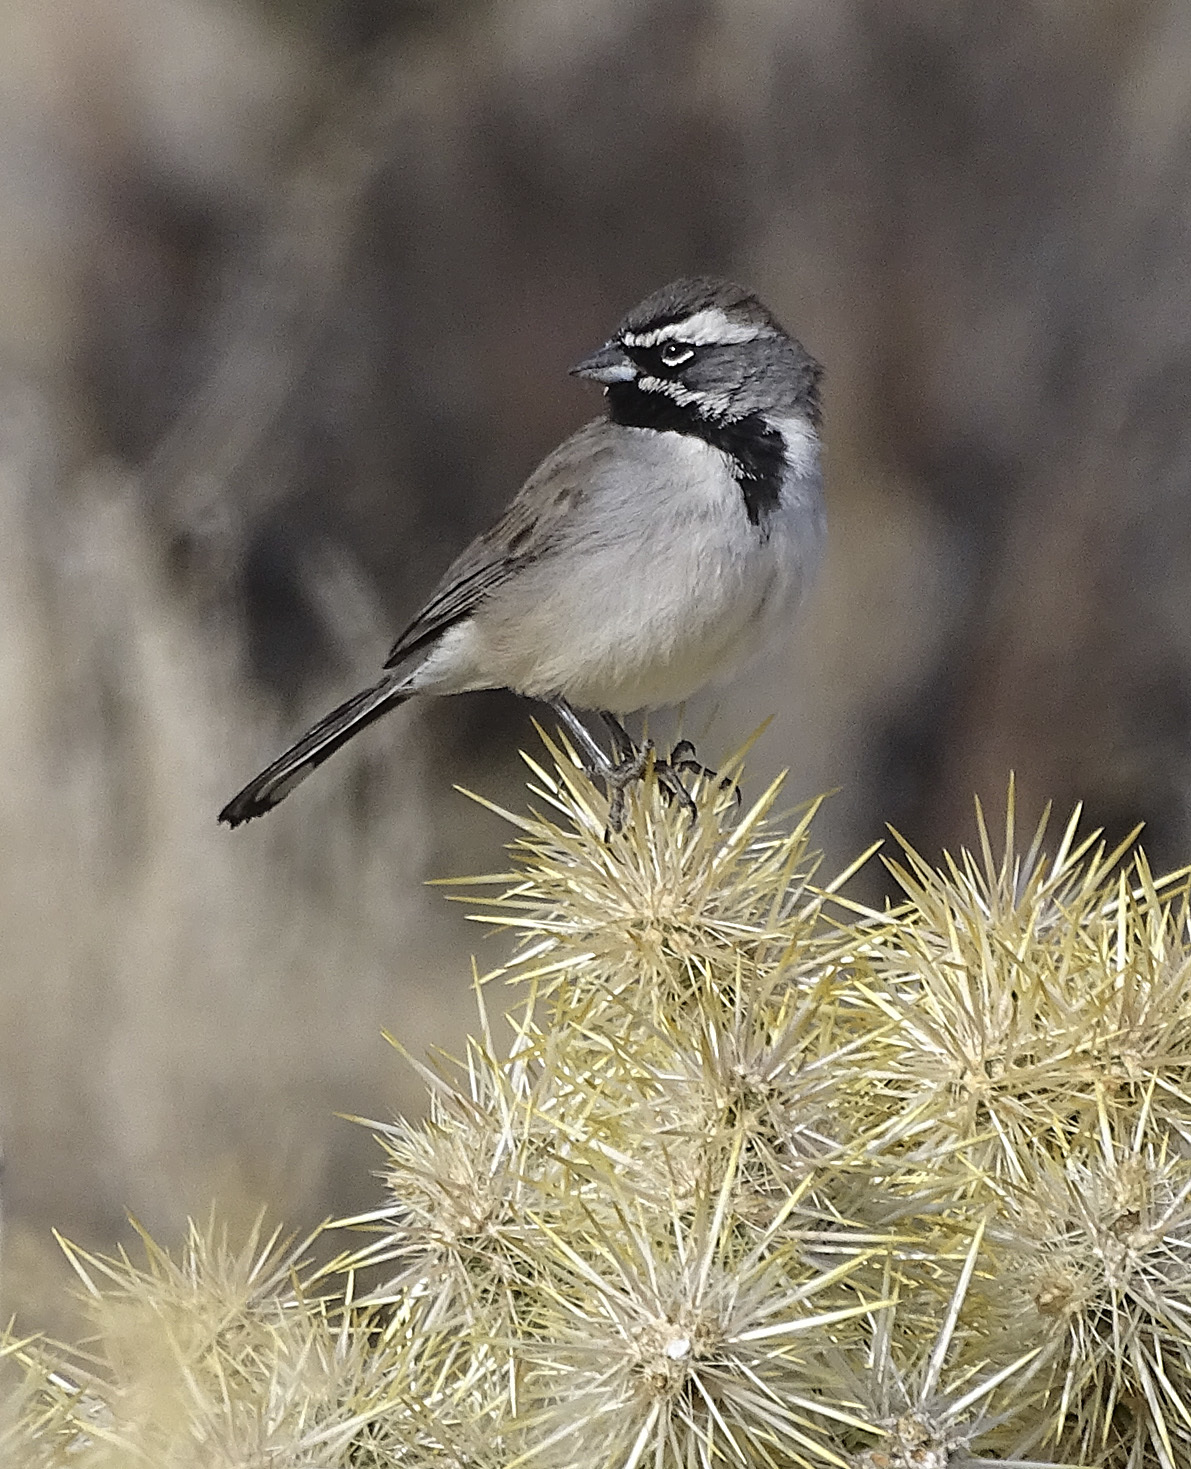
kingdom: Animalia
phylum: Chordata
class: Aves
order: Passeriformes
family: Passerellidae
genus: Amphispiza
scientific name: Amphispiza bilineata
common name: Black-throated sparrow
